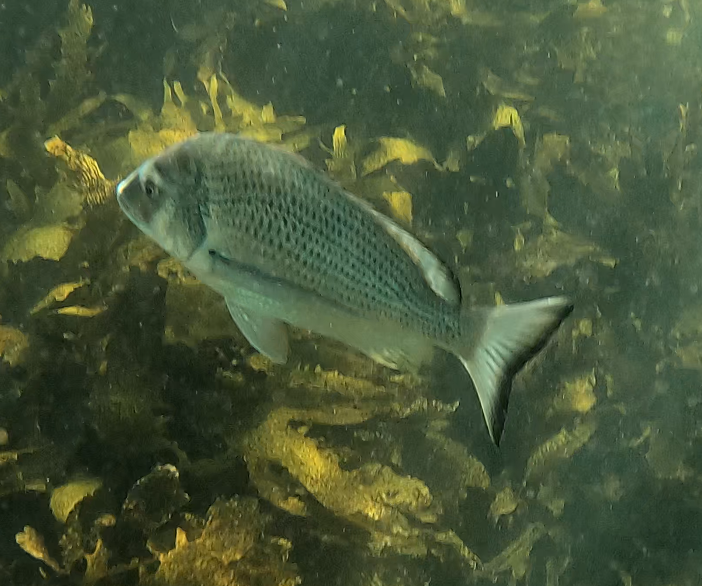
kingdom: Animalia
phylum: Chordata
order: Perciformes
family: Sparidae
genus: Acanthopagrus
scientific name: Acanthopagrus australis
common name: Surf bream
